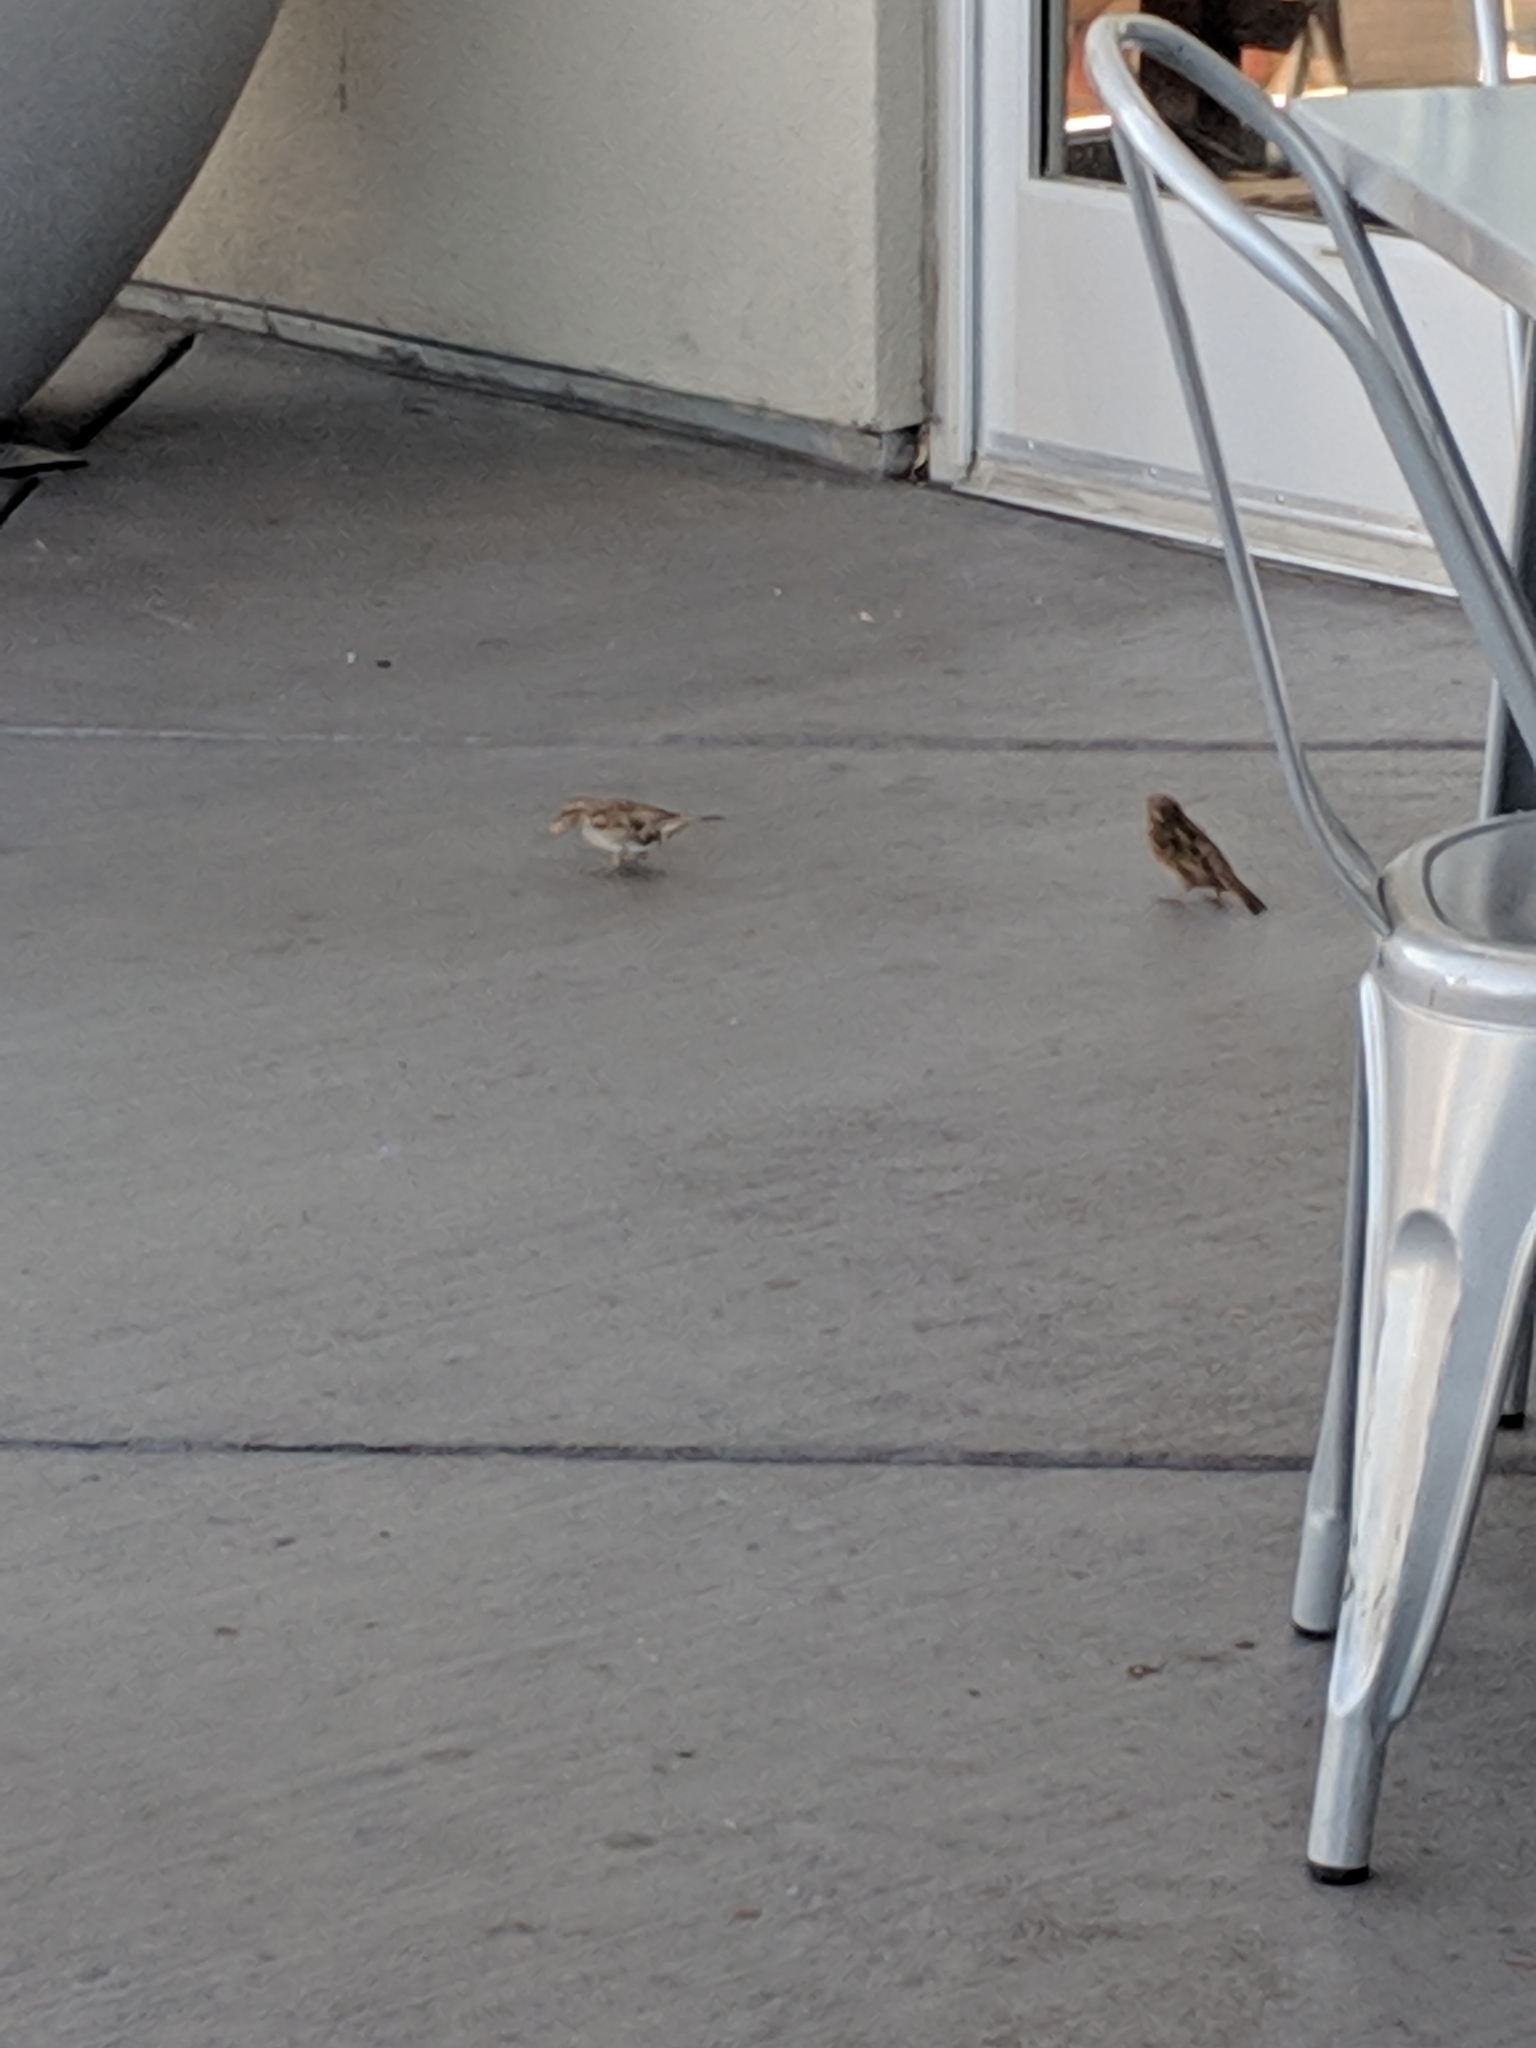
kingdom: Animalia
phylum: Chordata
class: Aves
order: Passeriformes
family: Passeridae
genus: Passer
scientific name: Passer domesticus
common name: House sparrow
